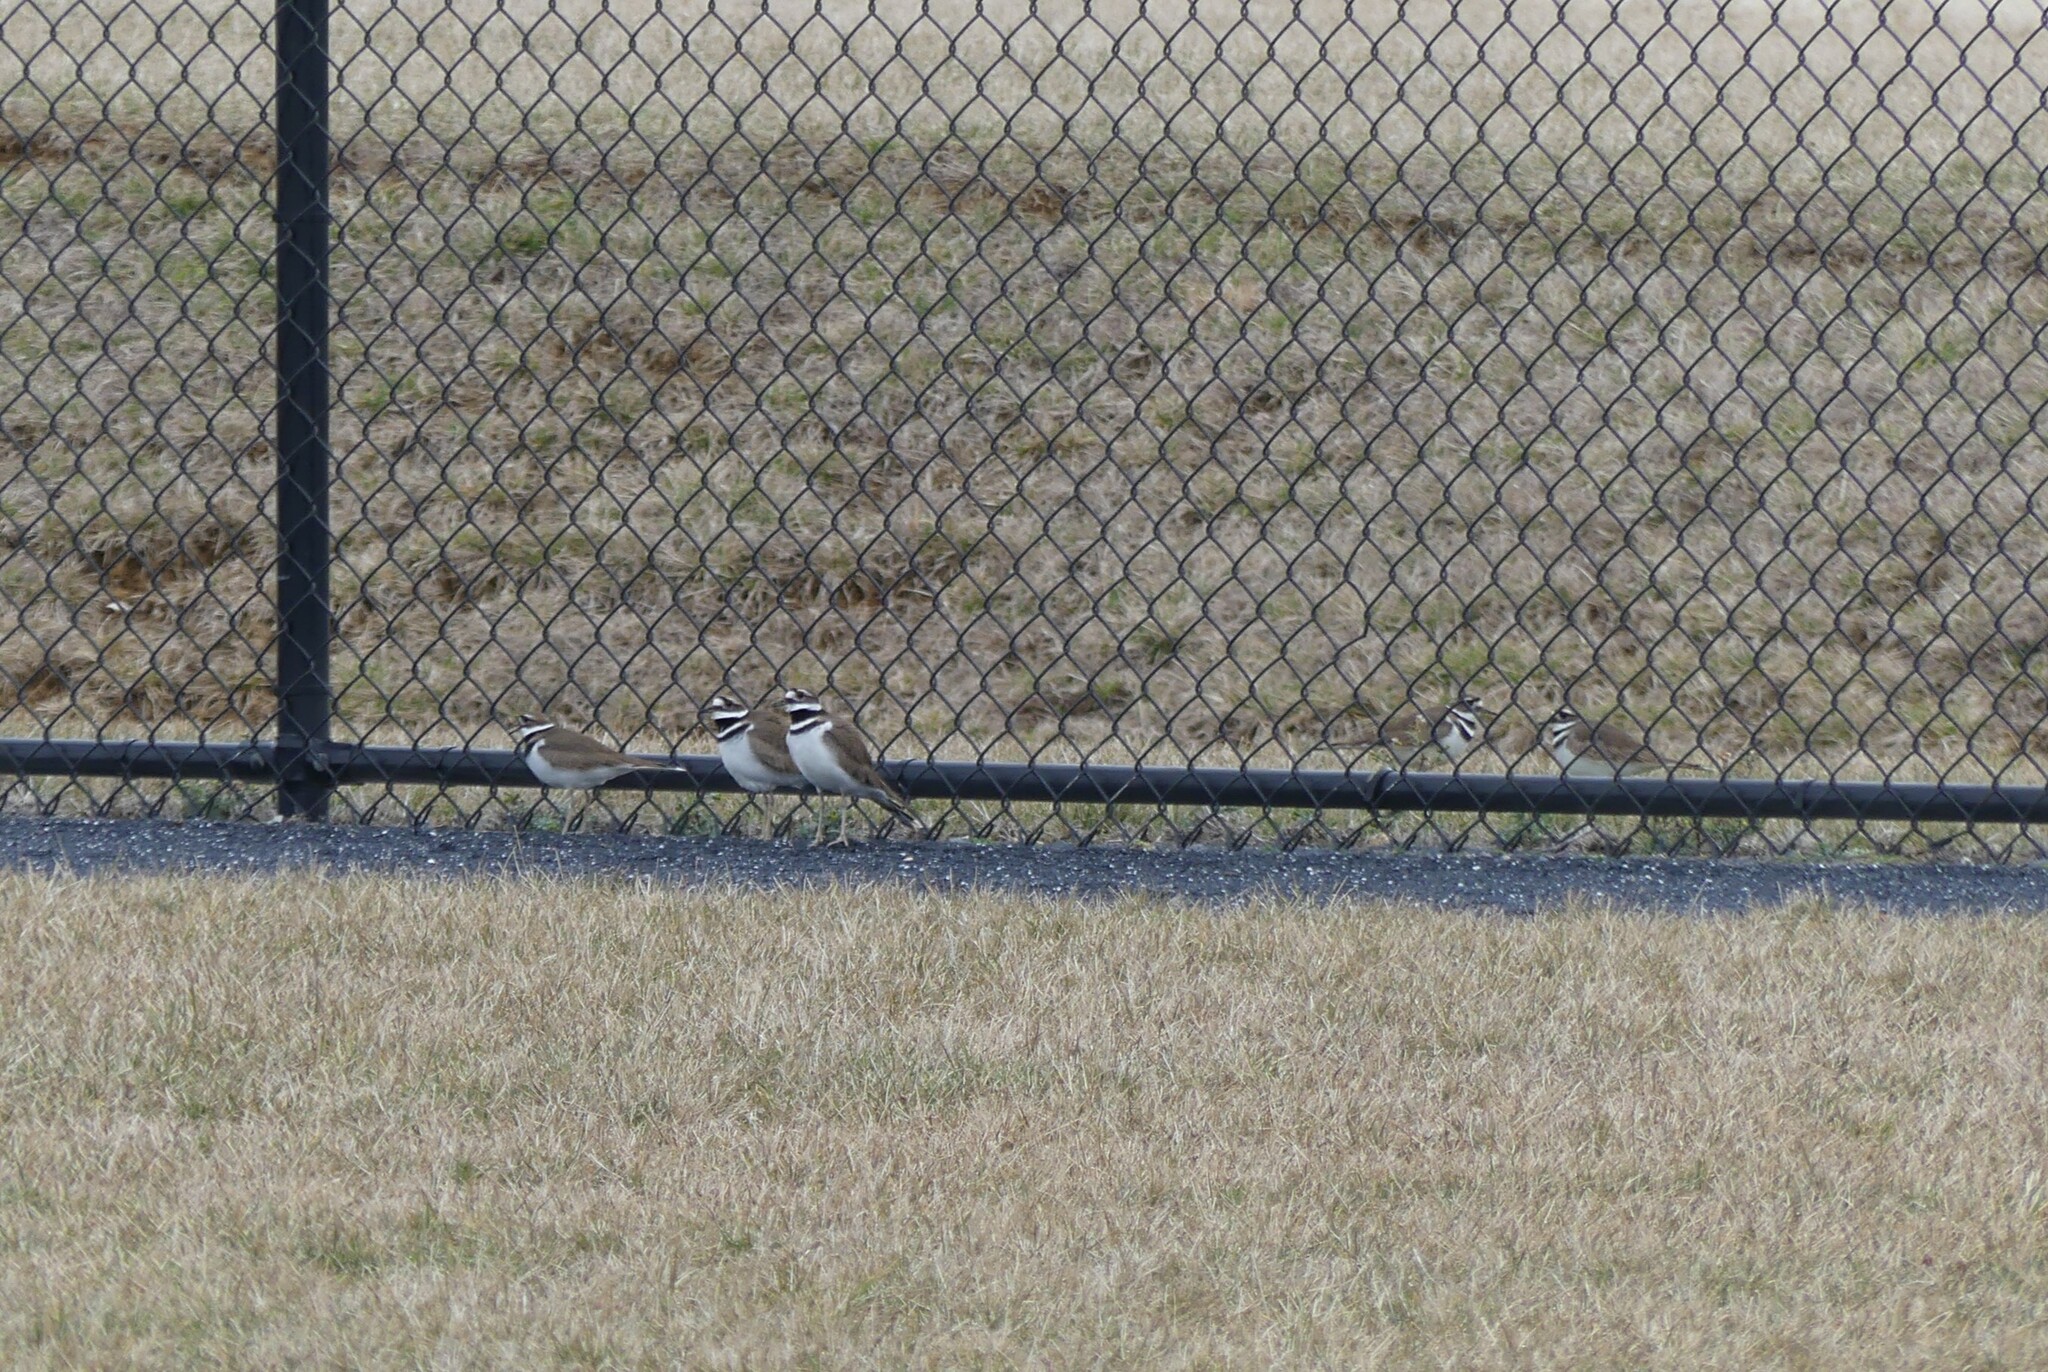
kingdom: Animalia
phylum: Chordata
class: Aves
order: Charadriiformes
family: Charadriidae
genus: Charadrius
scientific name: Charadrius vociferus
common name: Killdeer
